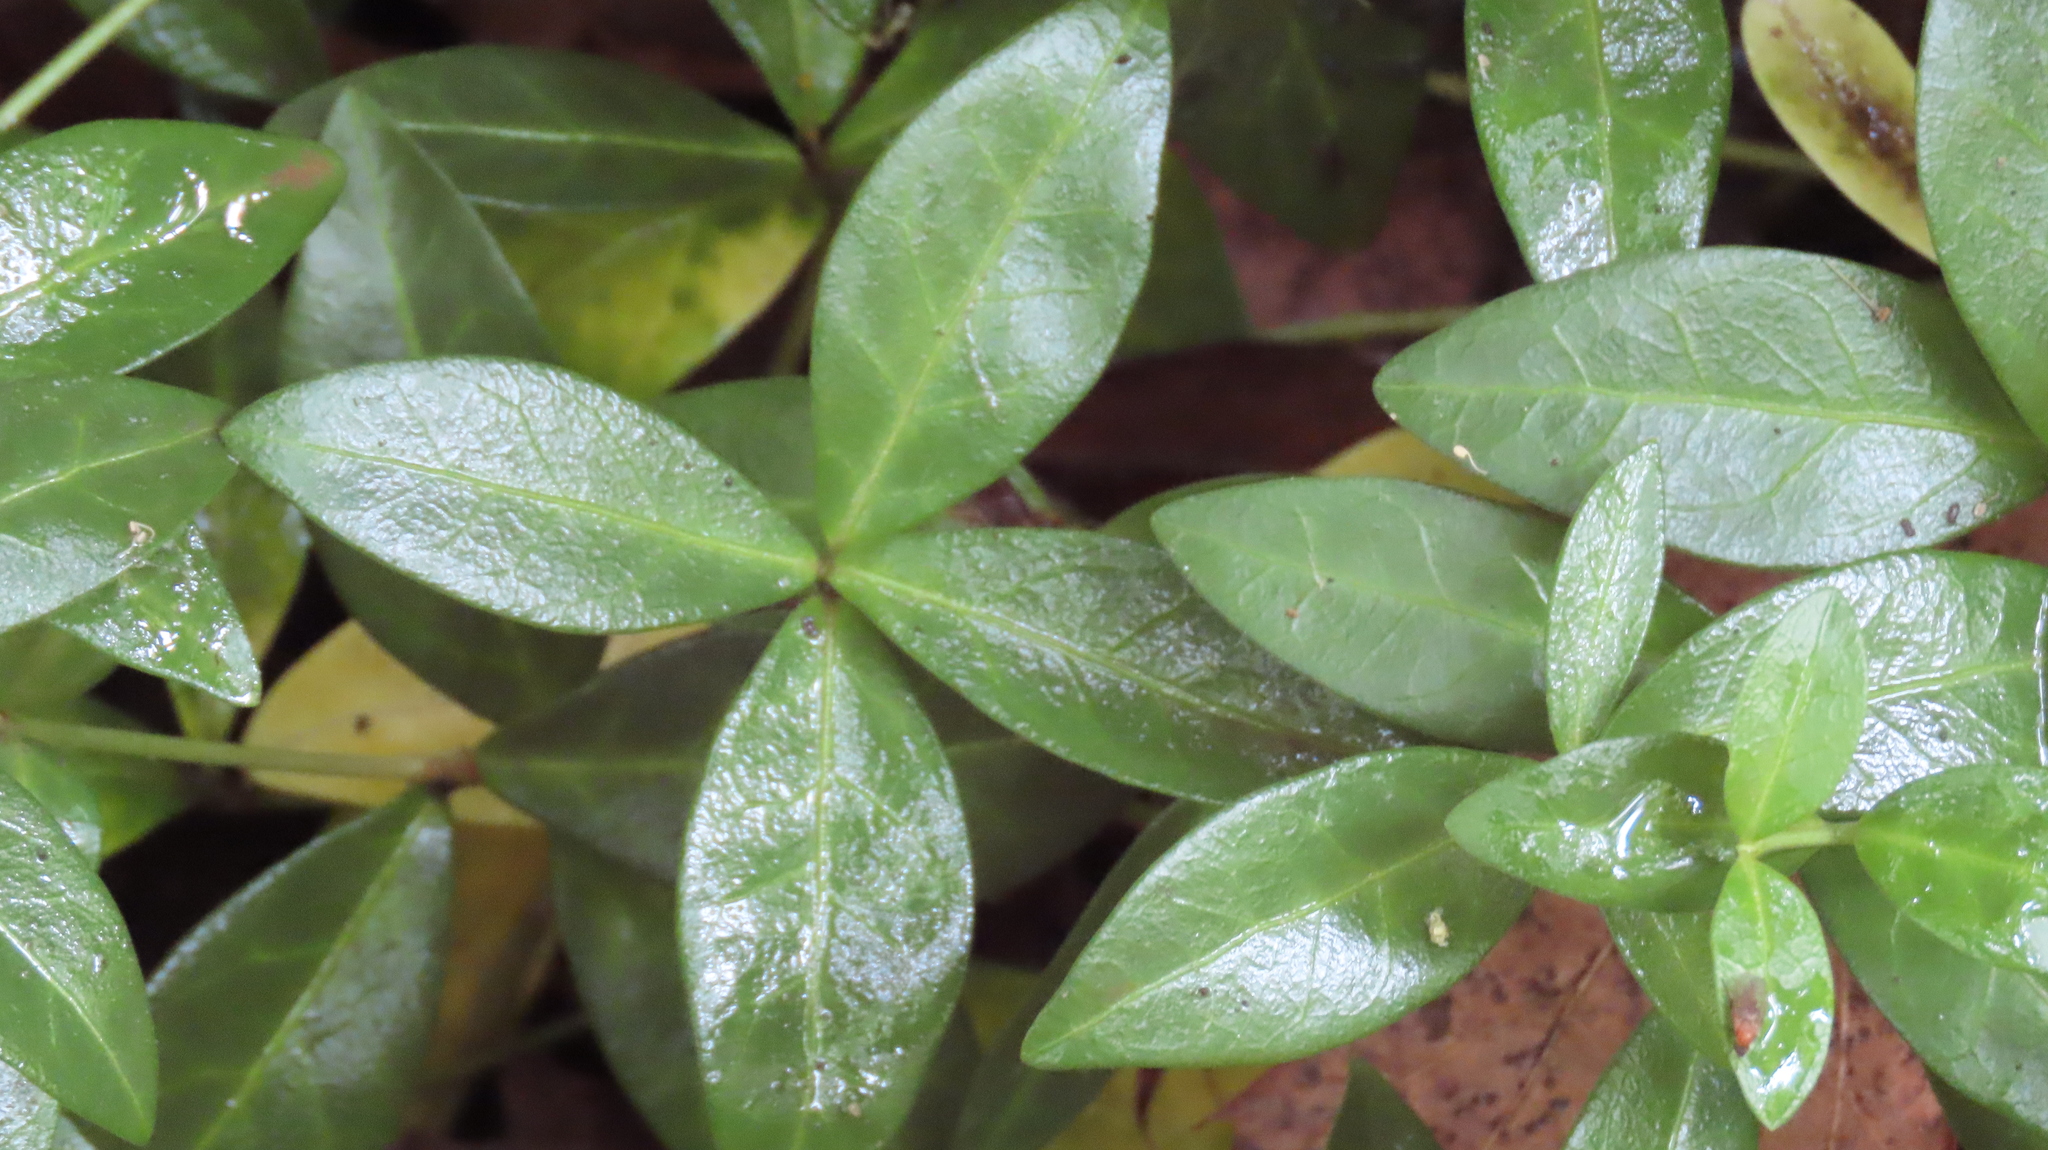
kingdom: Plantae
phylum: Tracheophyta
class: Magnoliopsida
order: Gentianales
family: Apocynaceae
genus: Vinca
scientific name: Vinca minor
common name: Lesser periwinkle
